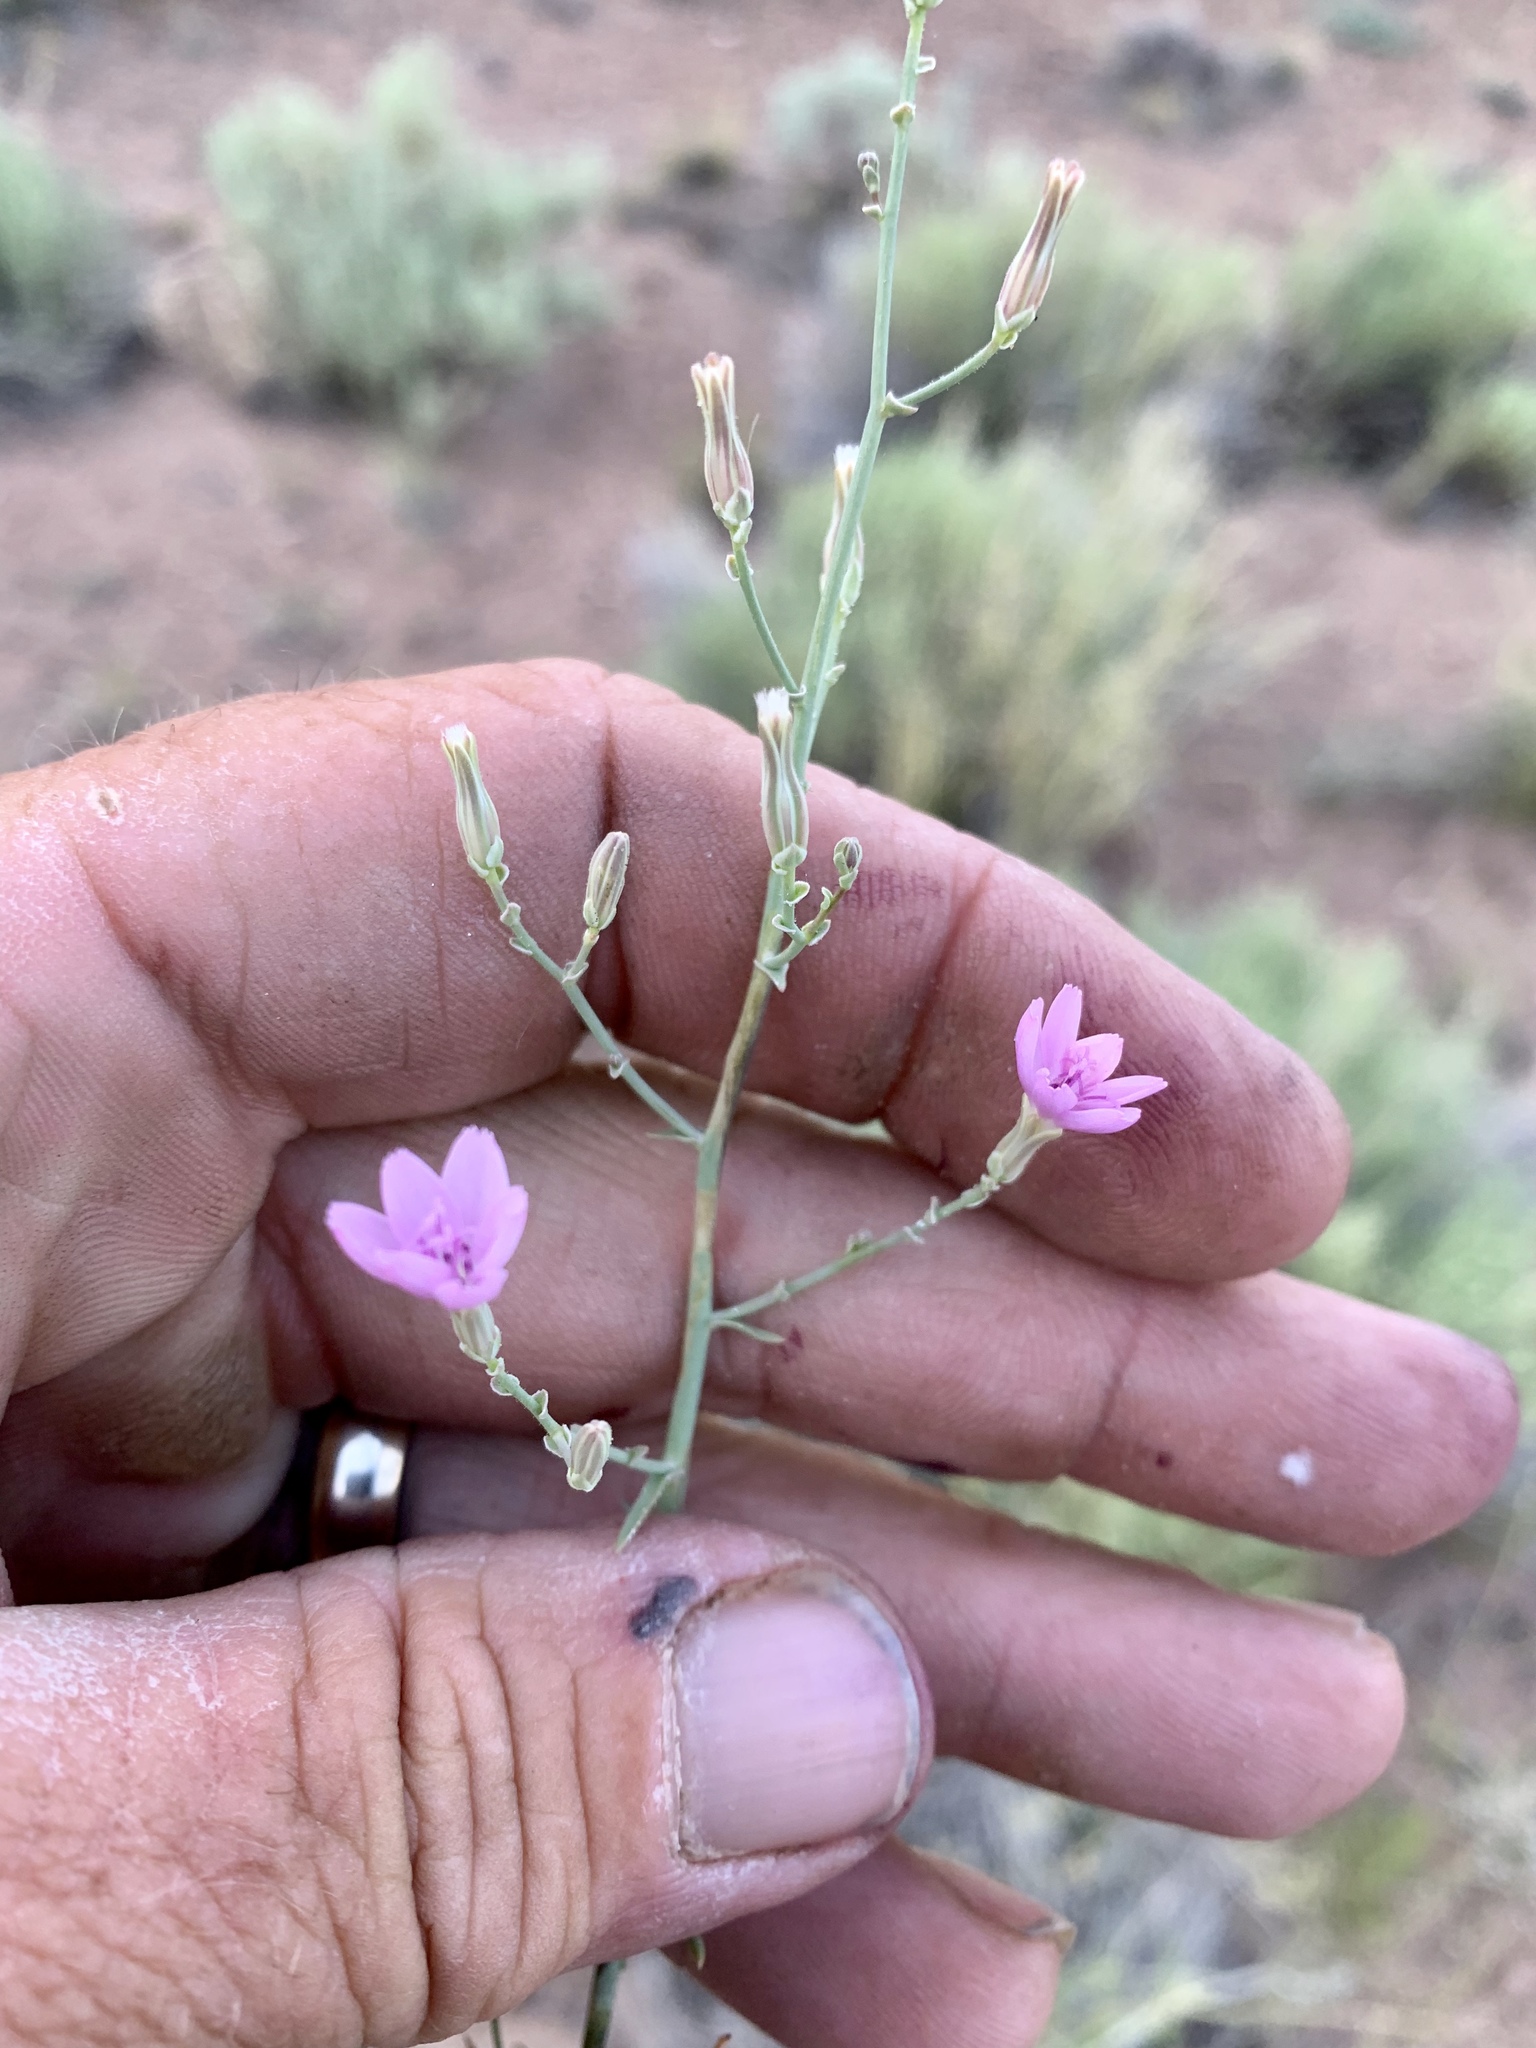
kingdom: Plantae
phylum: Tracheophyta
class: Magnoliopsida
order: Asterales
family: Asteraceae
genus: Stephanomeria
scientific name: Stephanomeria exigua
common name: Small wirelettuce
